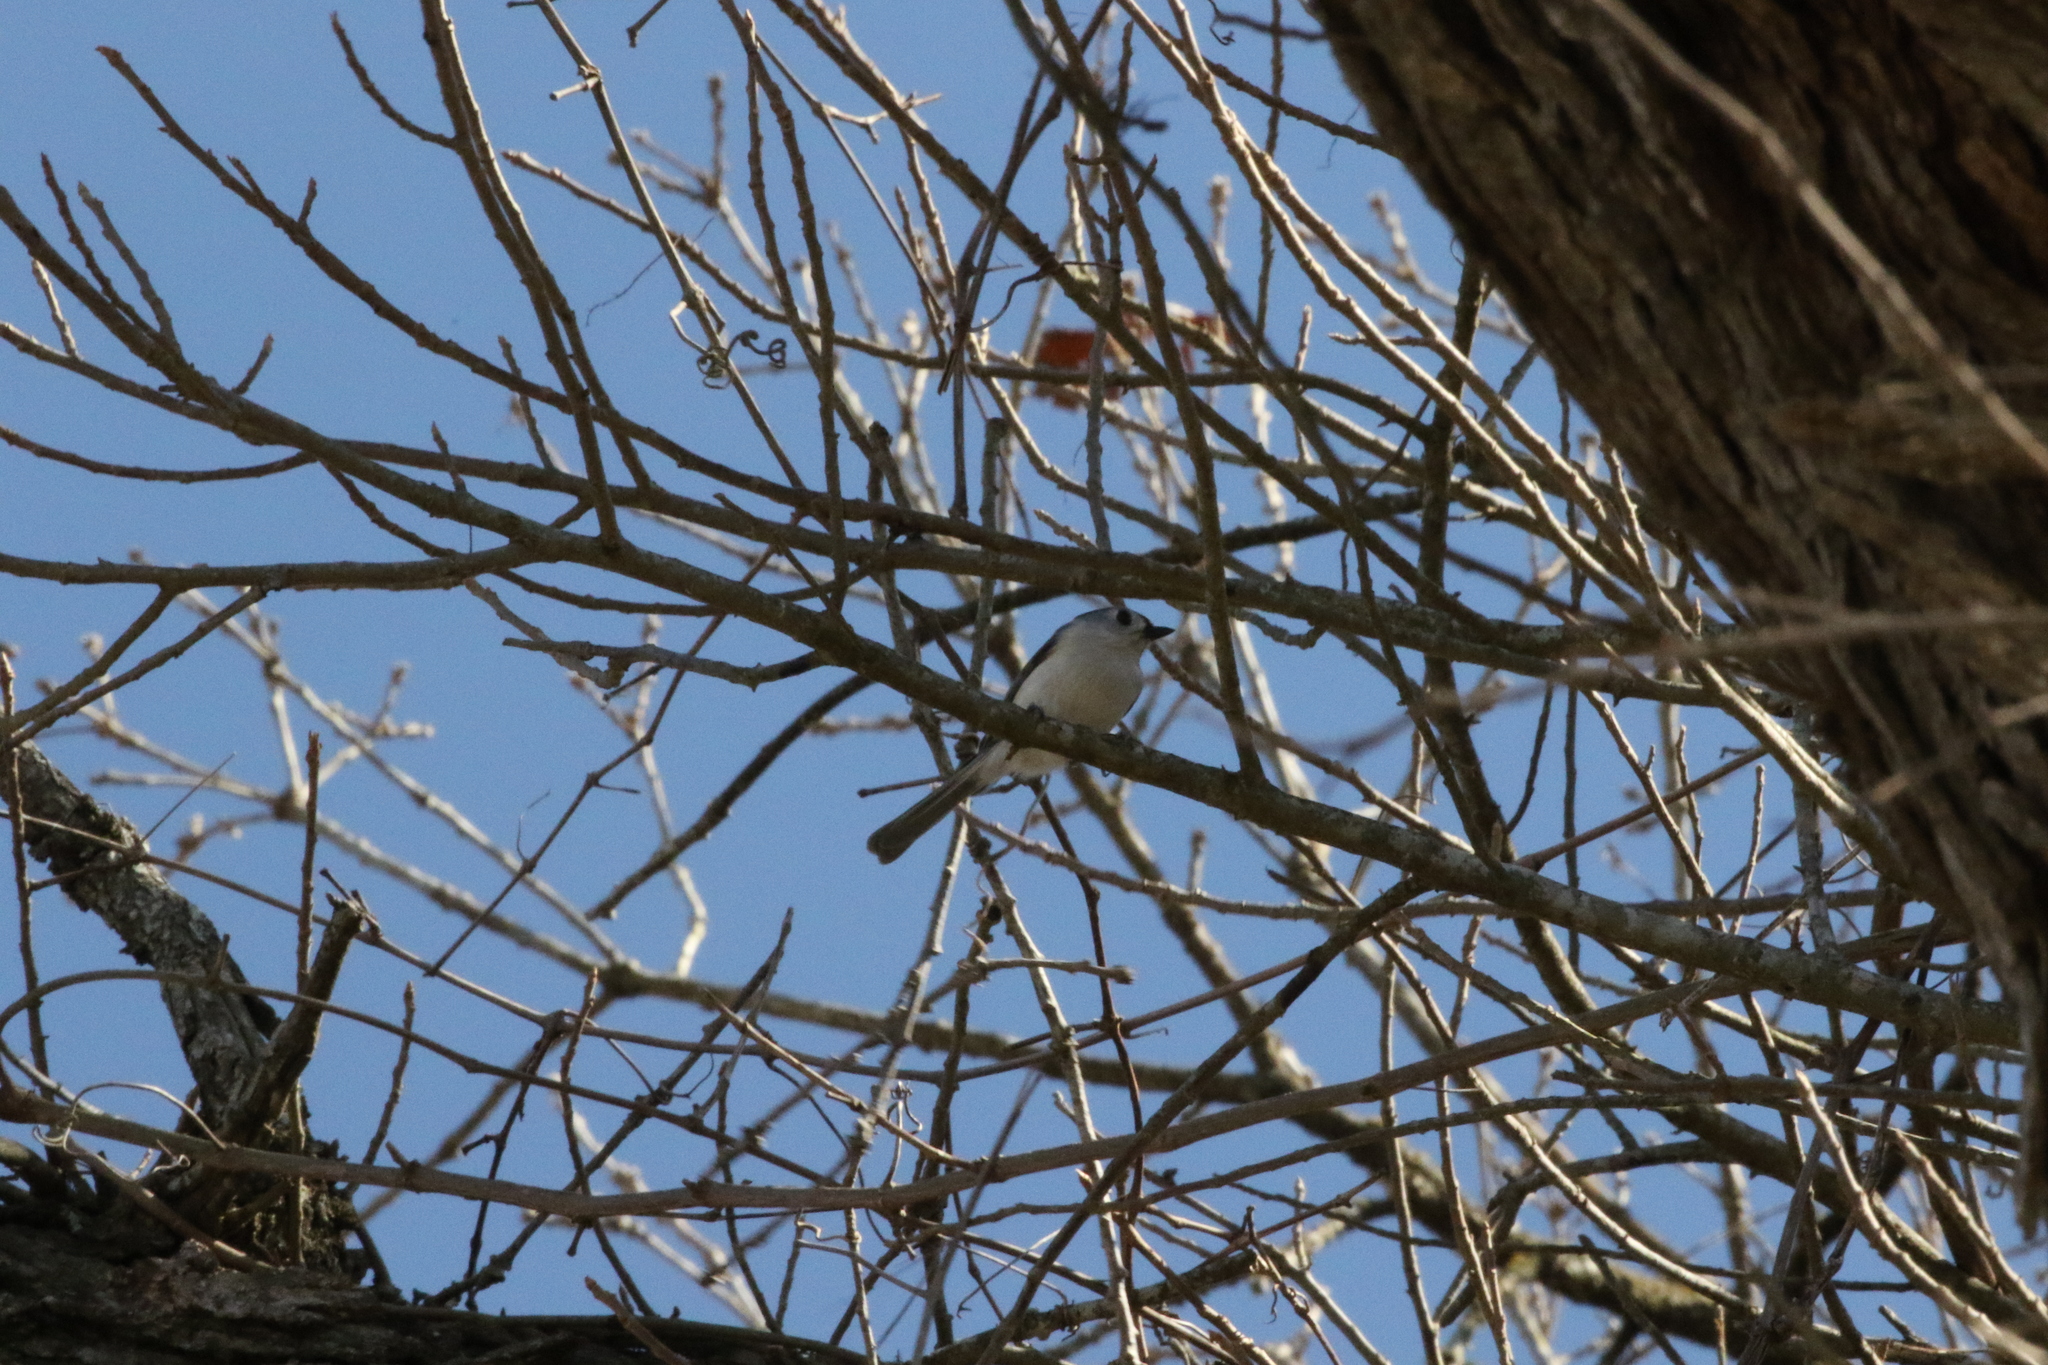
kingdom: Animalia
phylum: Chordata
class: Aves
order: Passeriformes
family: Paridae
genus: Baeolophus
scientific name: Baeolophus bicolor
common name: Tufted titmouse
